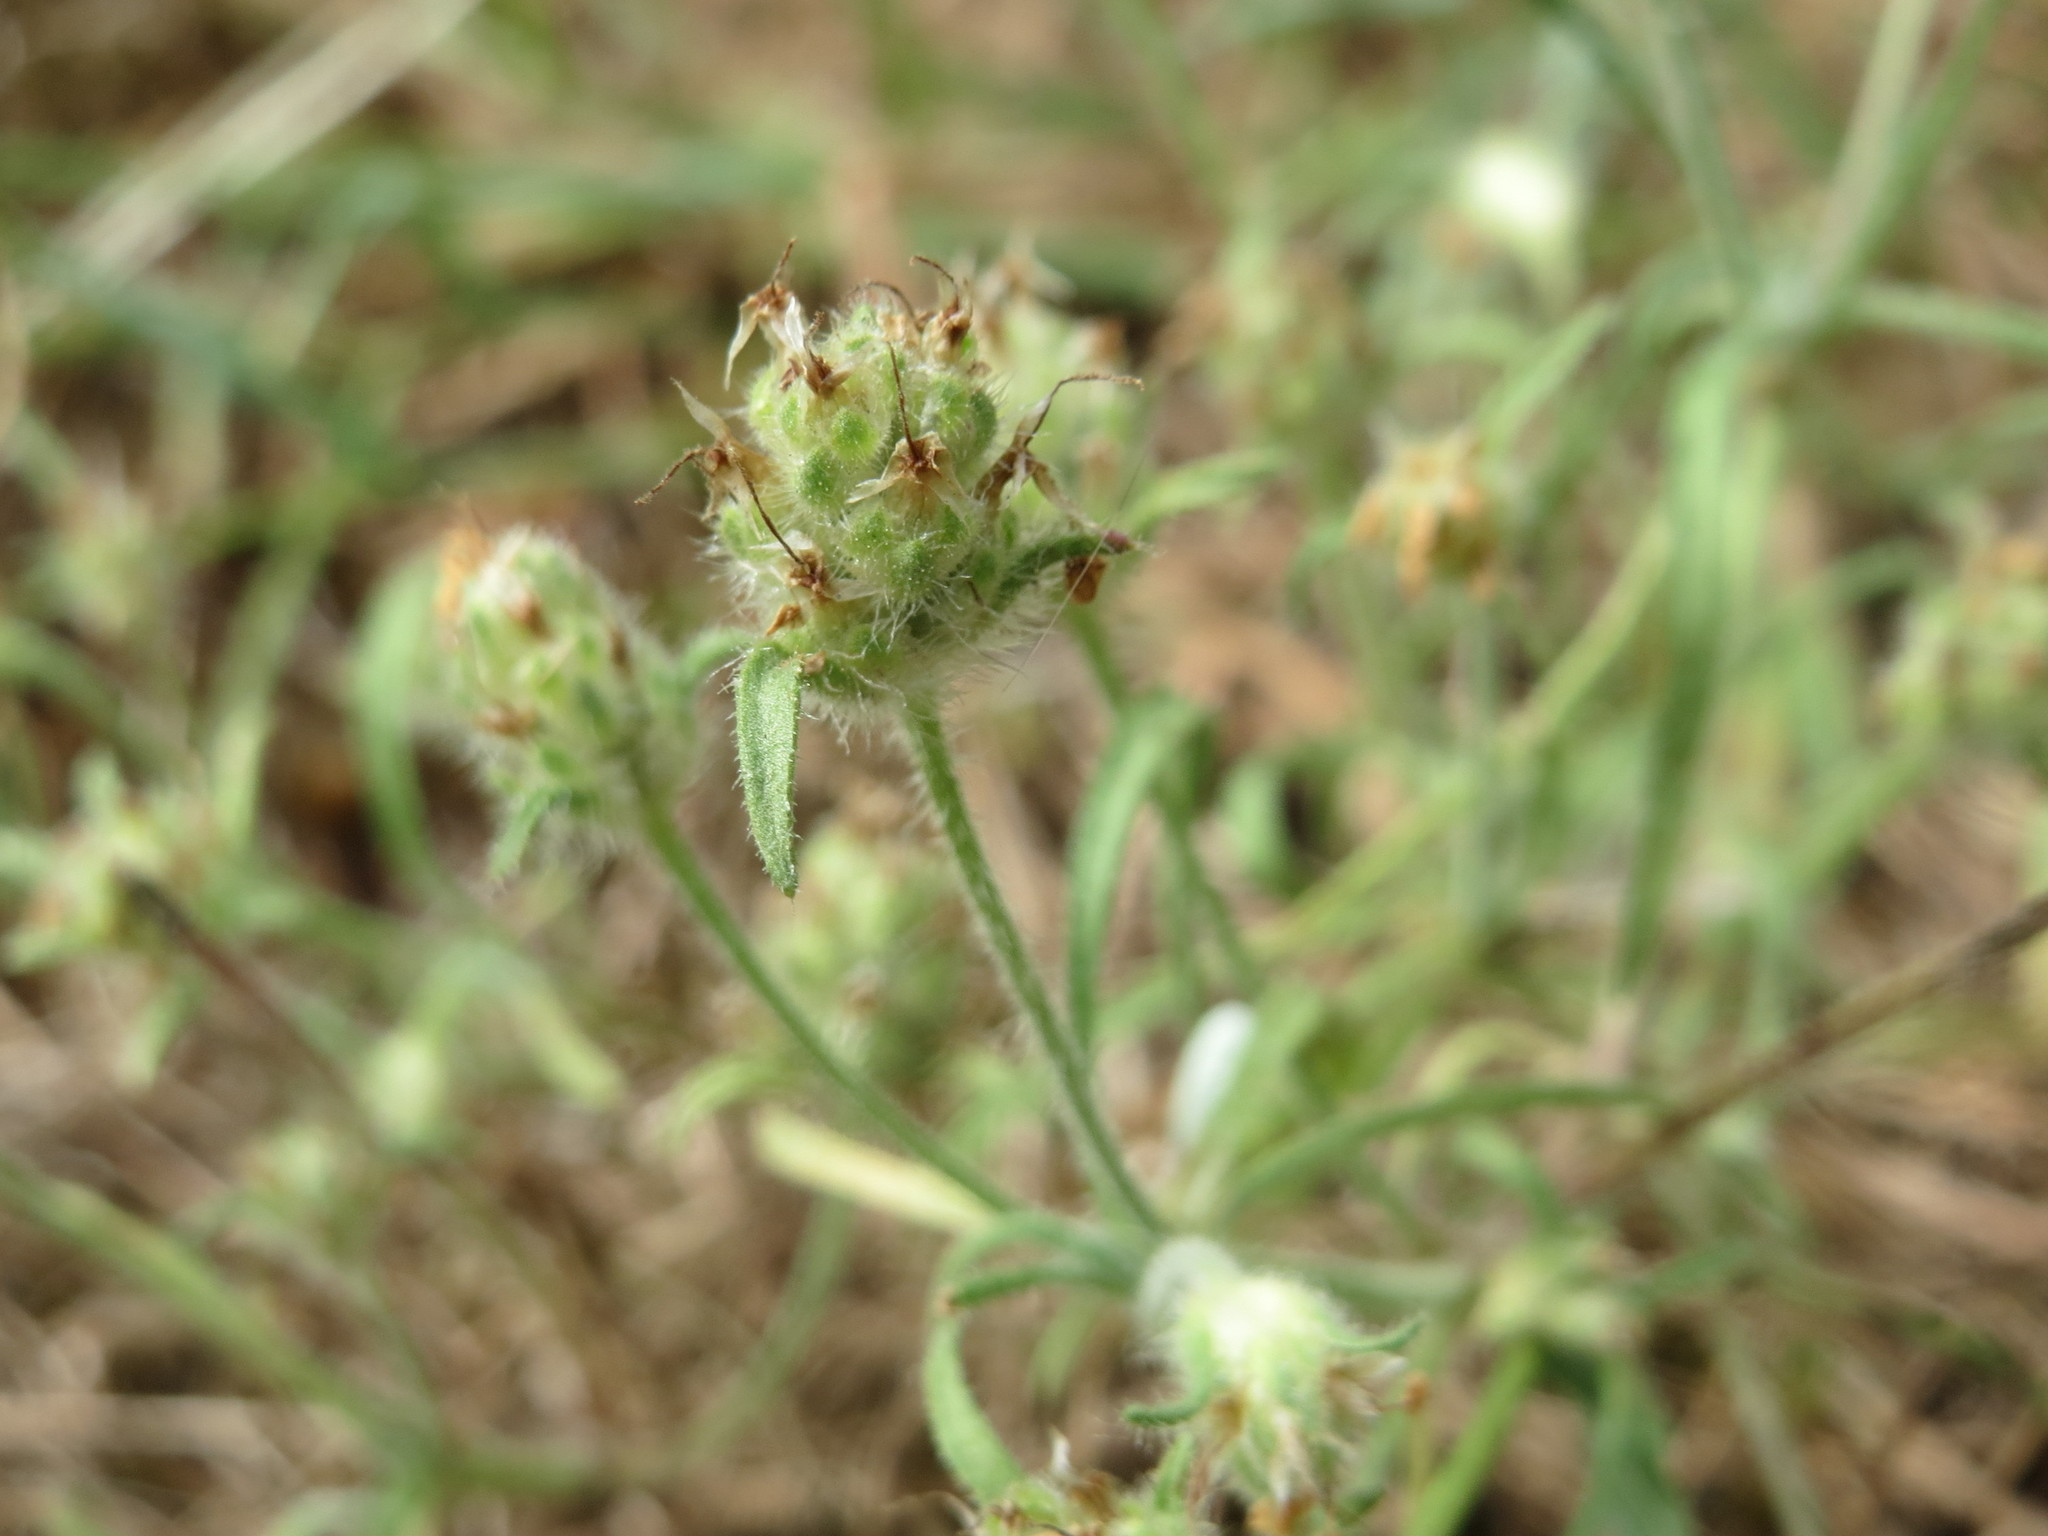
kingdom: Plantae
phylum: Tracheophyta
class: Magnoliopsida
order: Lamiales
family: Plantaginaceae
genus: Plantago
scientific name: Plantago arenaria
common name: Branched plantain
